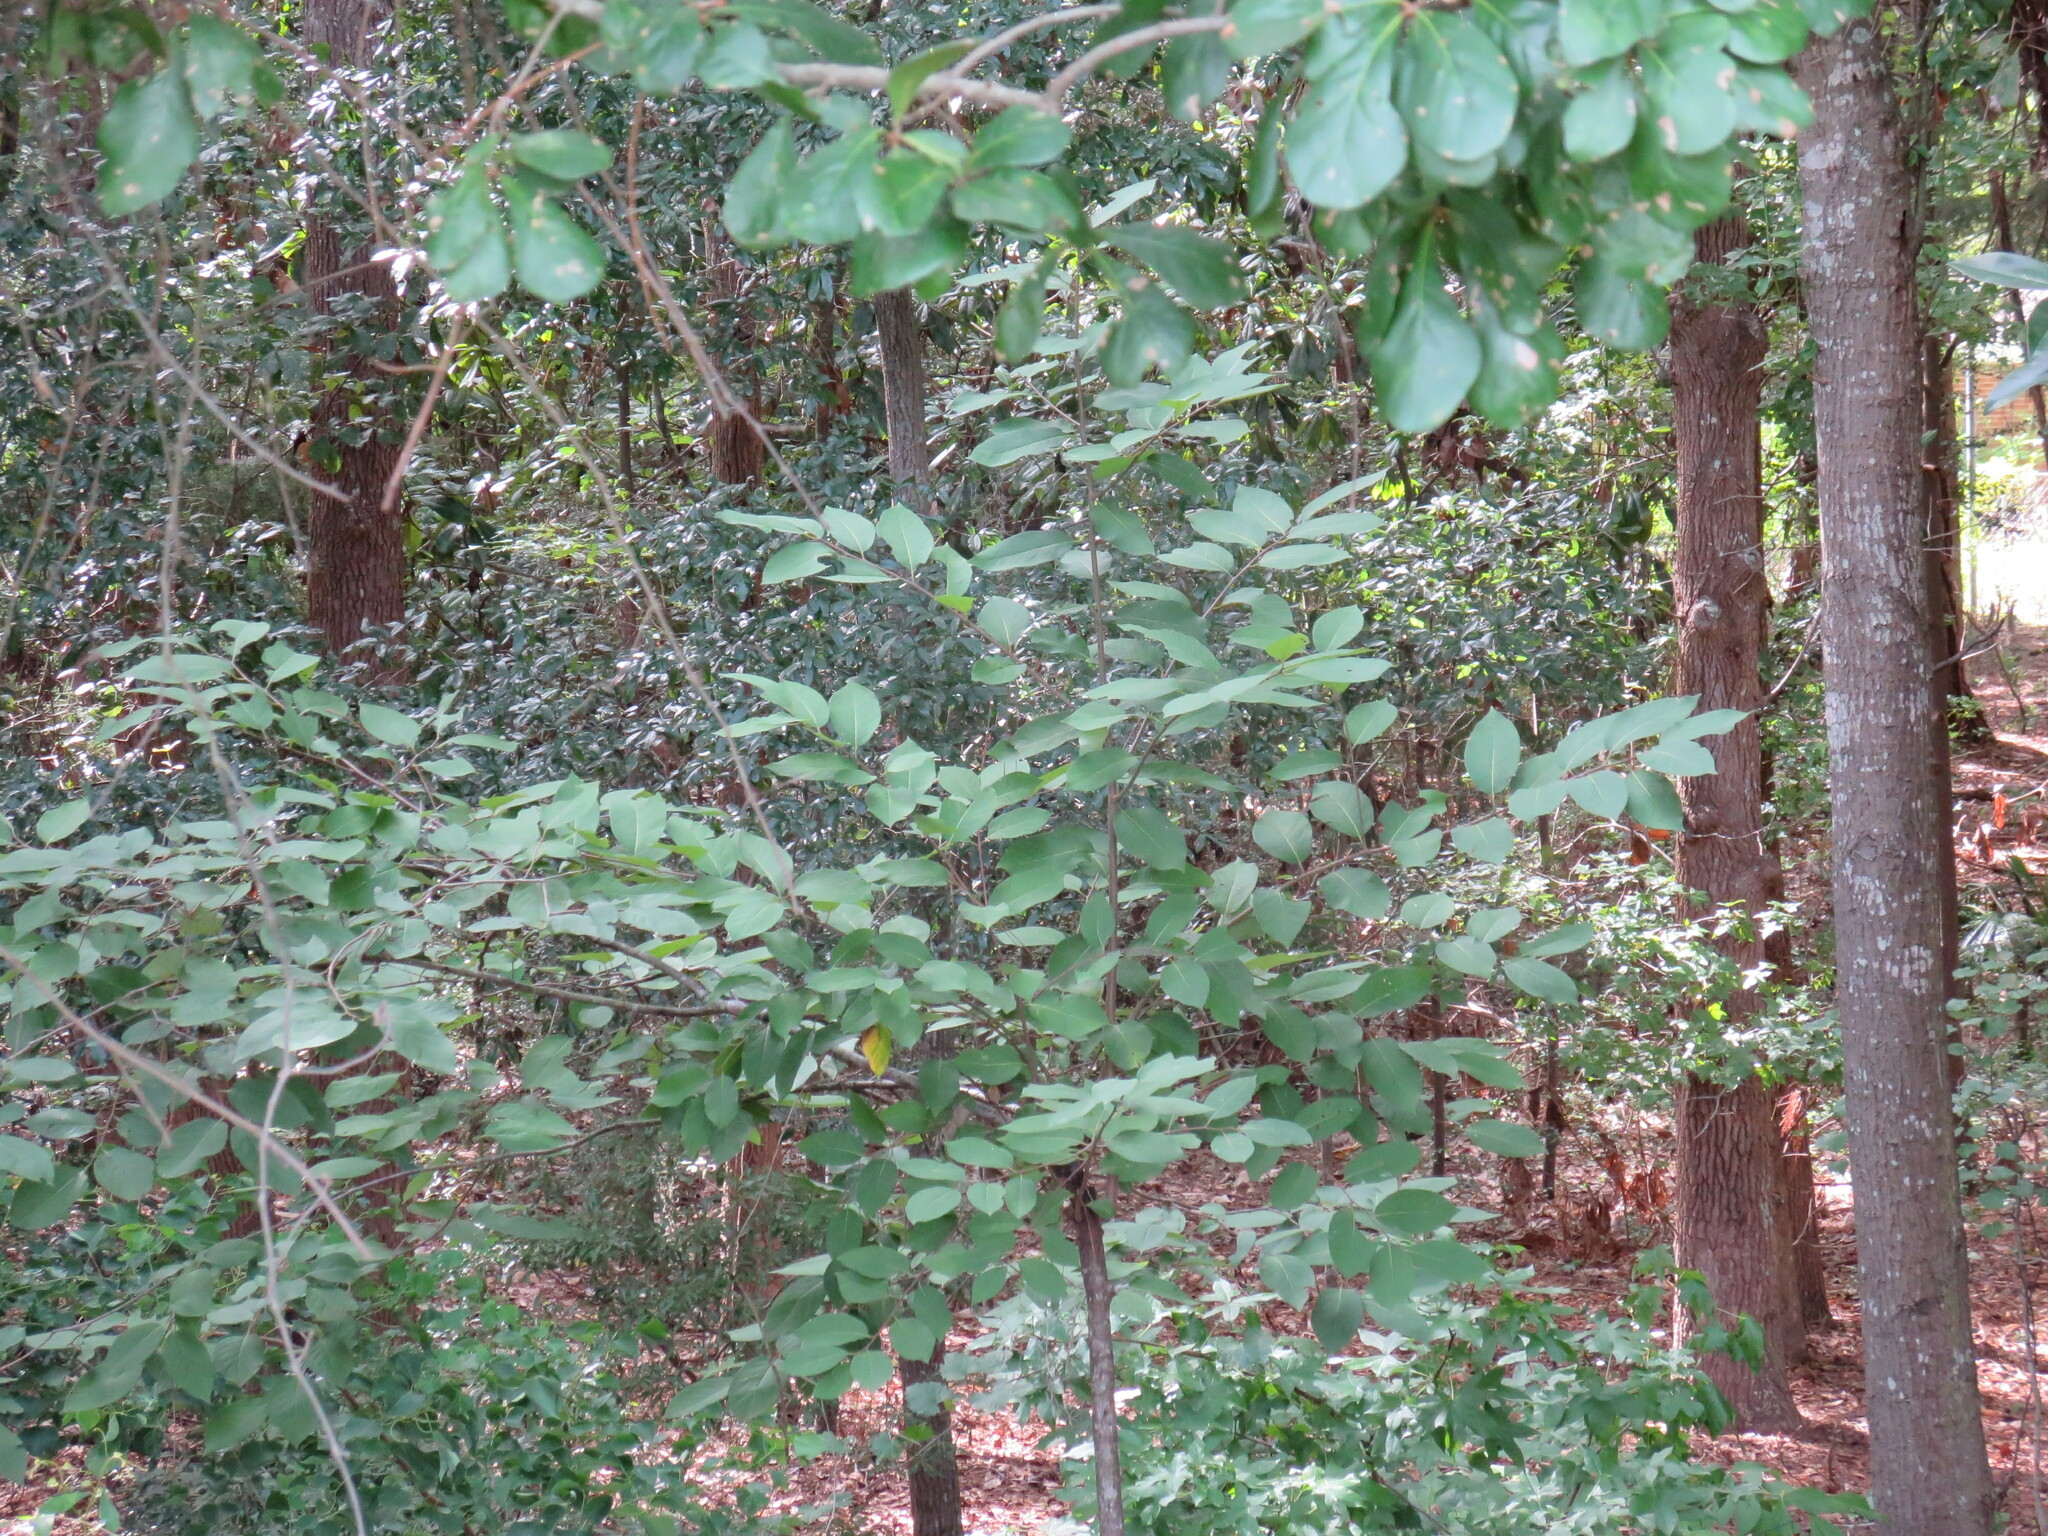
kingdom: Plantae
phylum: Tracheophyta
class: Magnoliopsida
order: Ericales
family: Ebenaceae
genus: Diospyros
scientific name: Diospyros virginiana
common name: Persimmon
